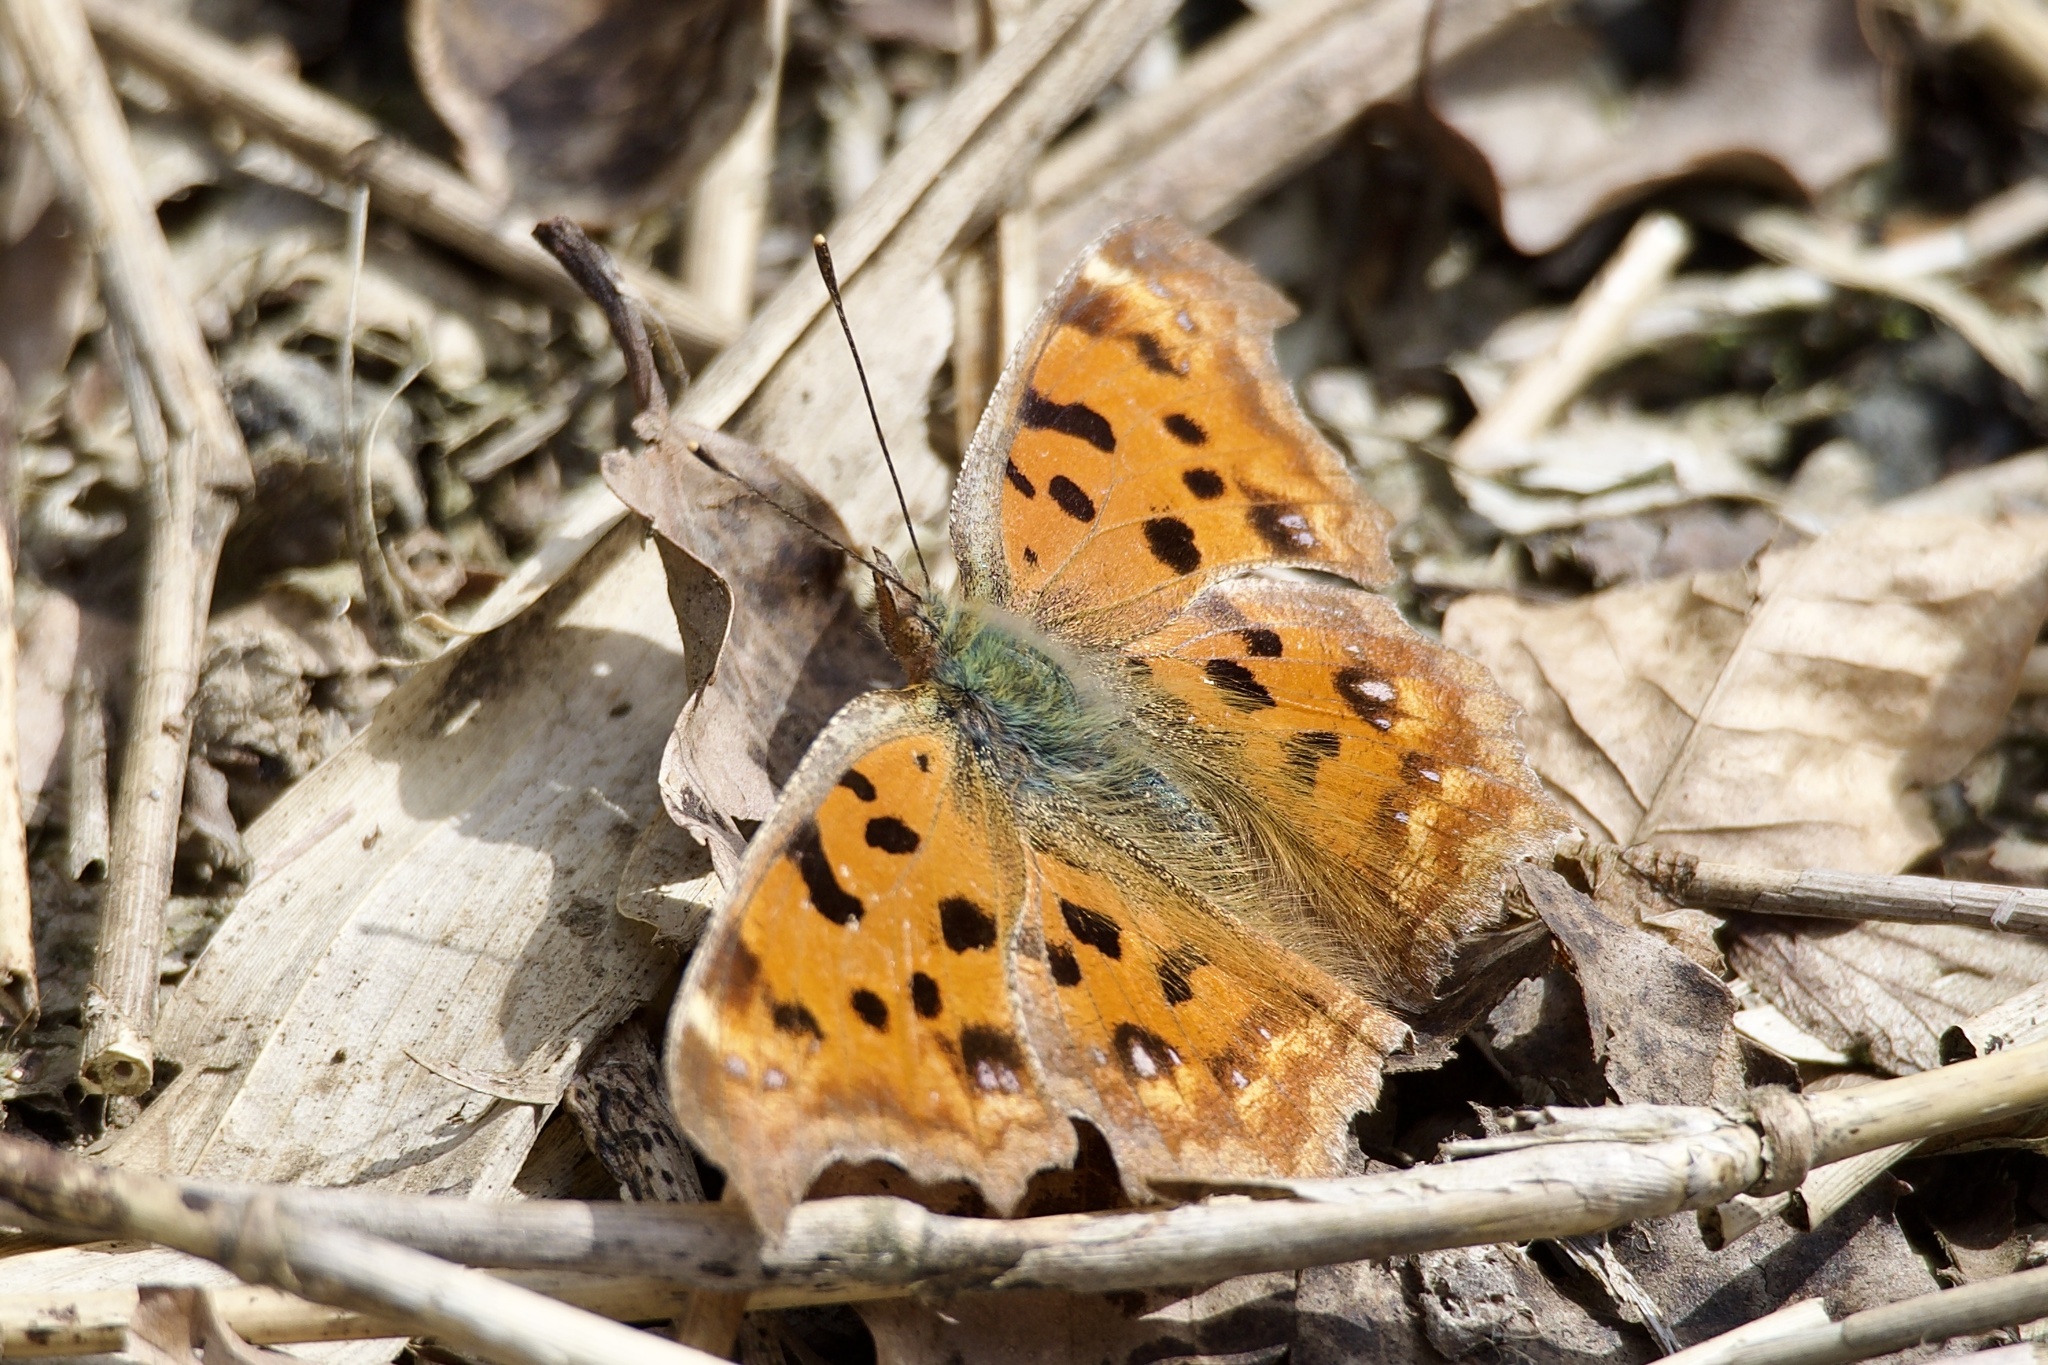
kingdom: Animalia
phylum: Arthropoda
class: Insecta
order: Lepidoptera
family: Nymphalidae
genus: Polygonia
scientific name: Polygonia c-aureum
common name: Asian comma
